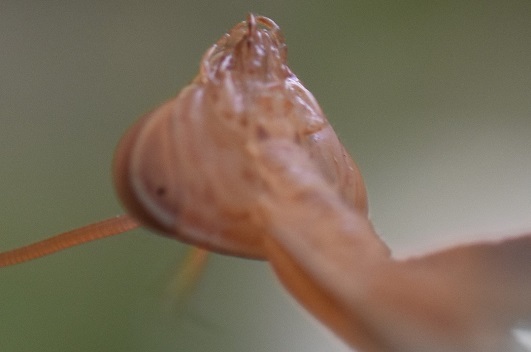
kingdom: Animalia
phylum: Arthropoda
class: Insecta
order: Mantodea
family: Mantidae
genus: Mantis
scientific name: Mantis religiosa
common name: Praying mantis
